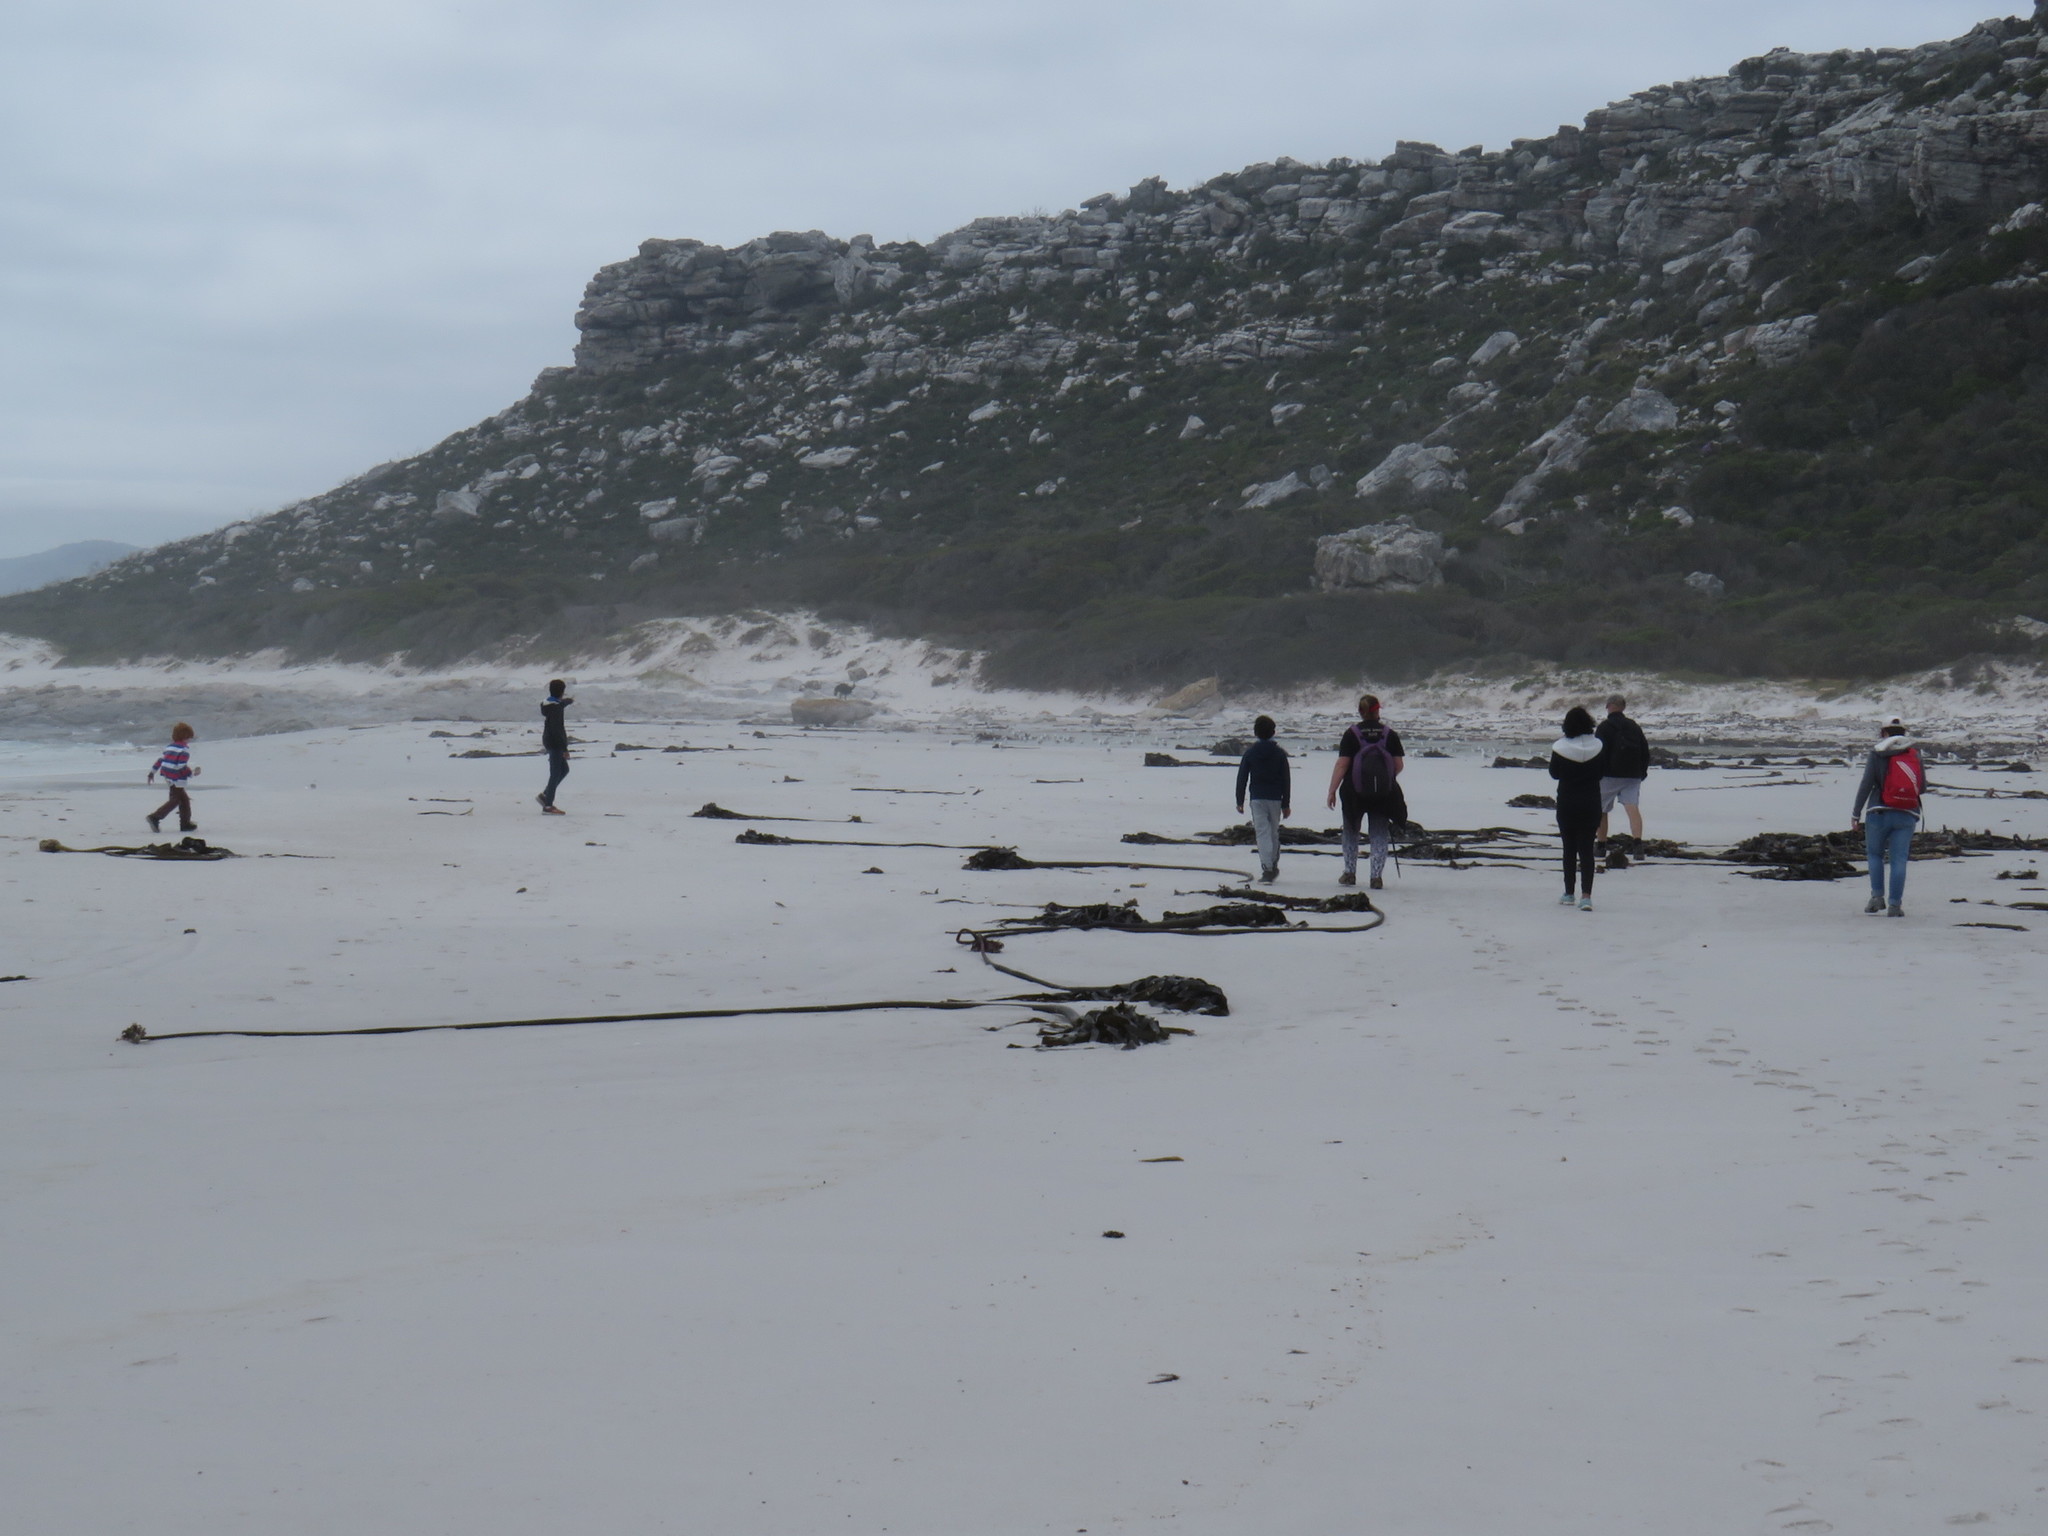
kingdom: Chromista
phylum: Ochrophyta
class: Phaeophyceae
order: Laminariales
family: Lessoniaceae
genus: Ecklonia
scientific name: Ecklonia
